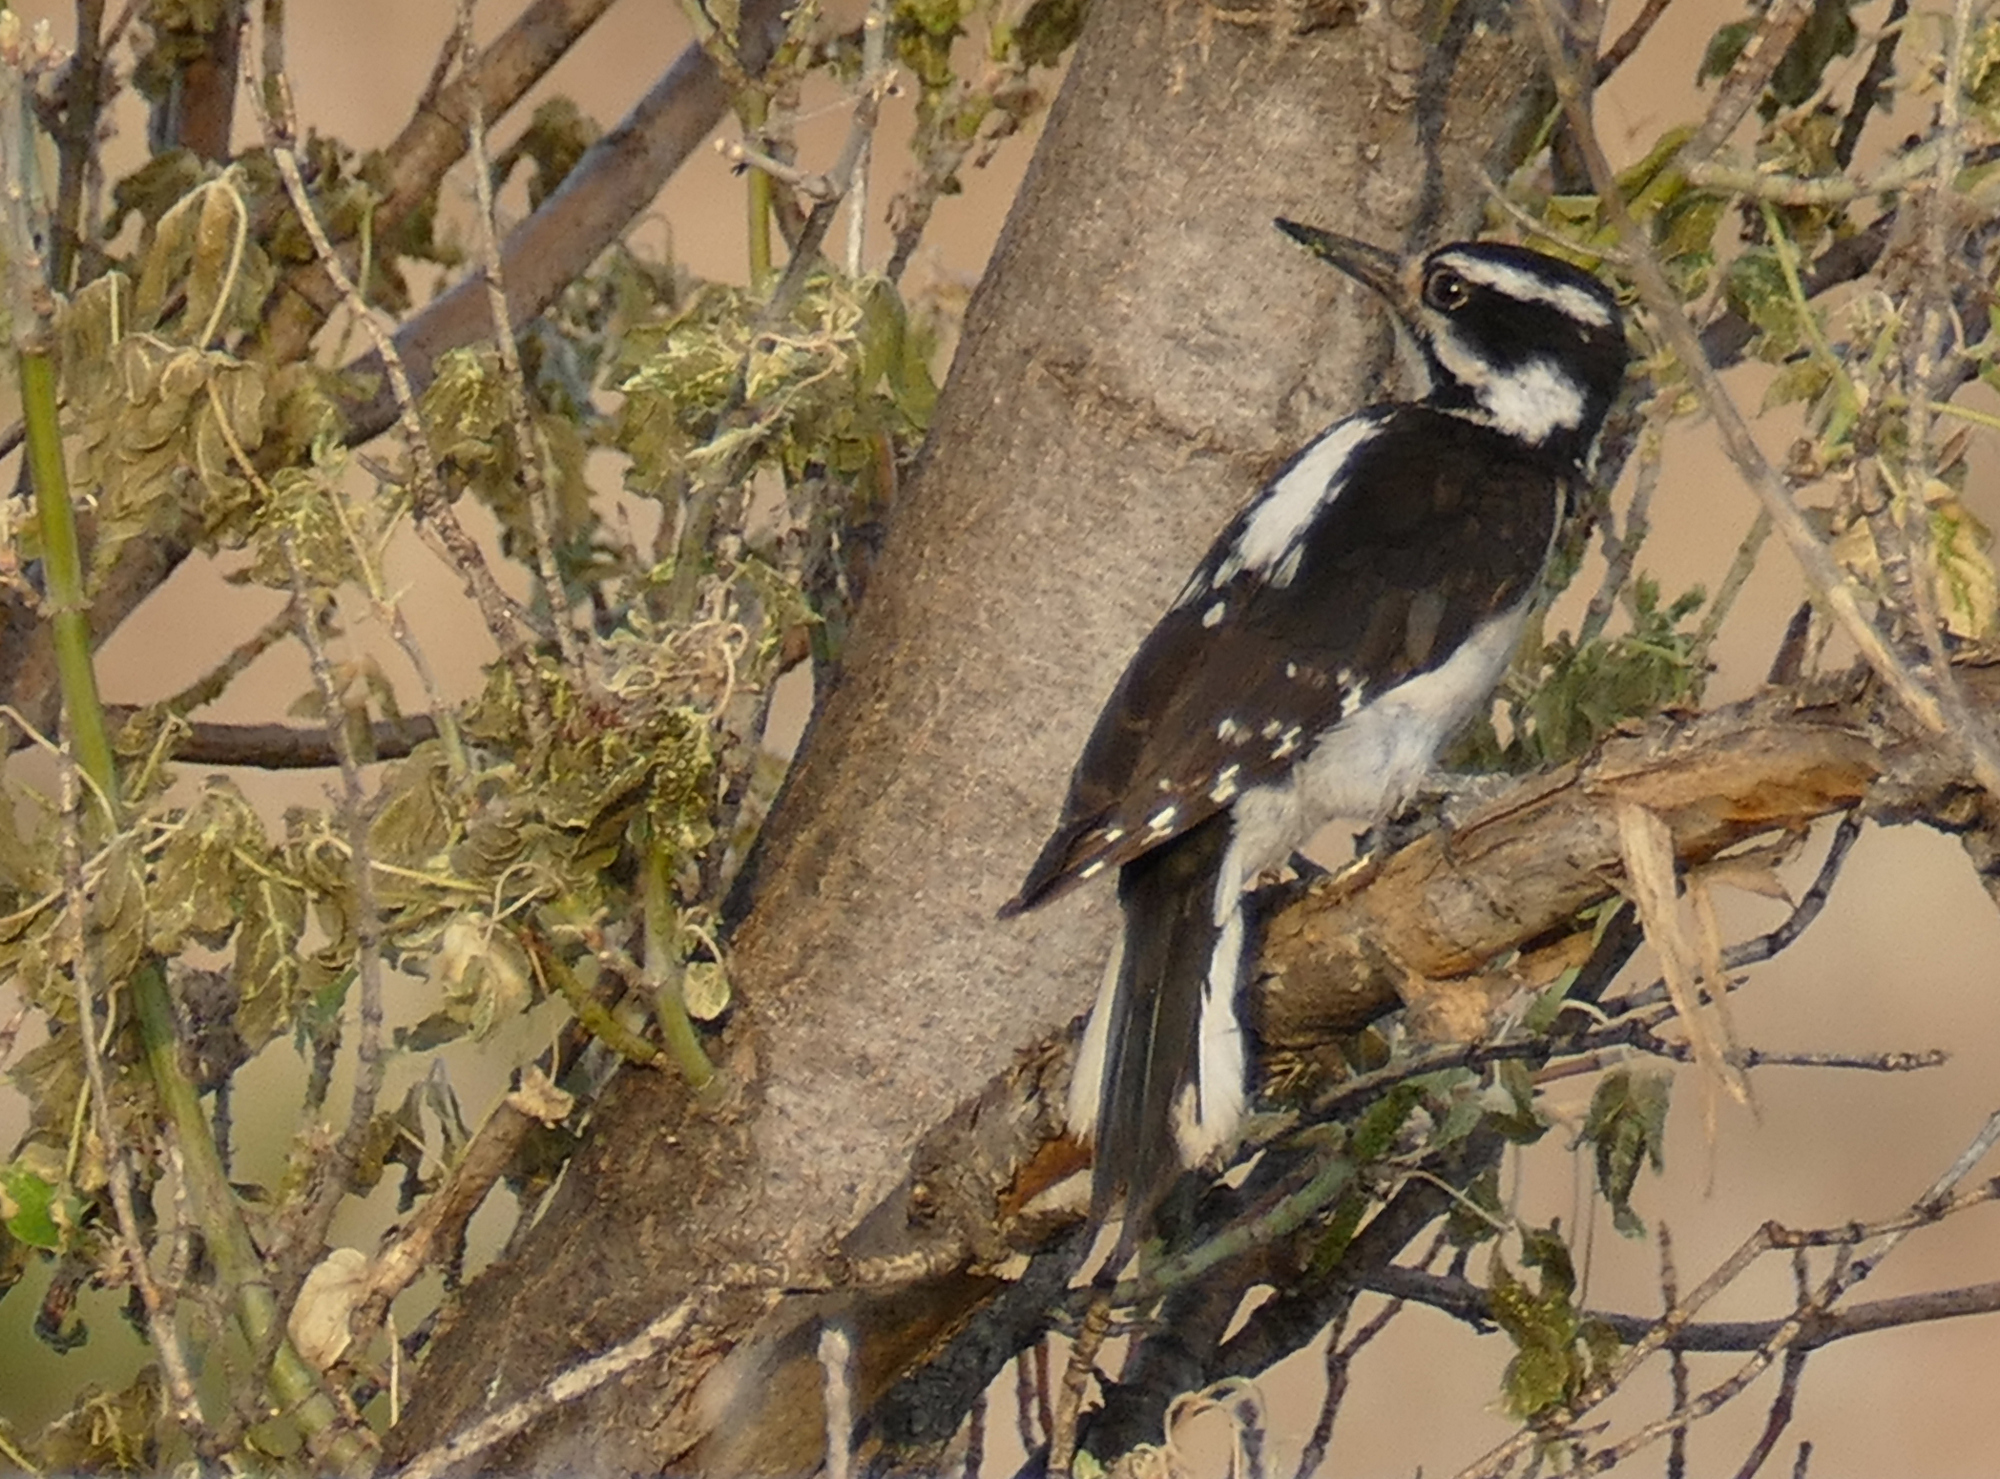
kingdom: Animalia
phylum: Chordata
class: Aves
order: Piciformes
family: Picidae
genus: Leuconotopicus
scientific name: Leuconotopicus villosus
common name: Hairy woodpecker
